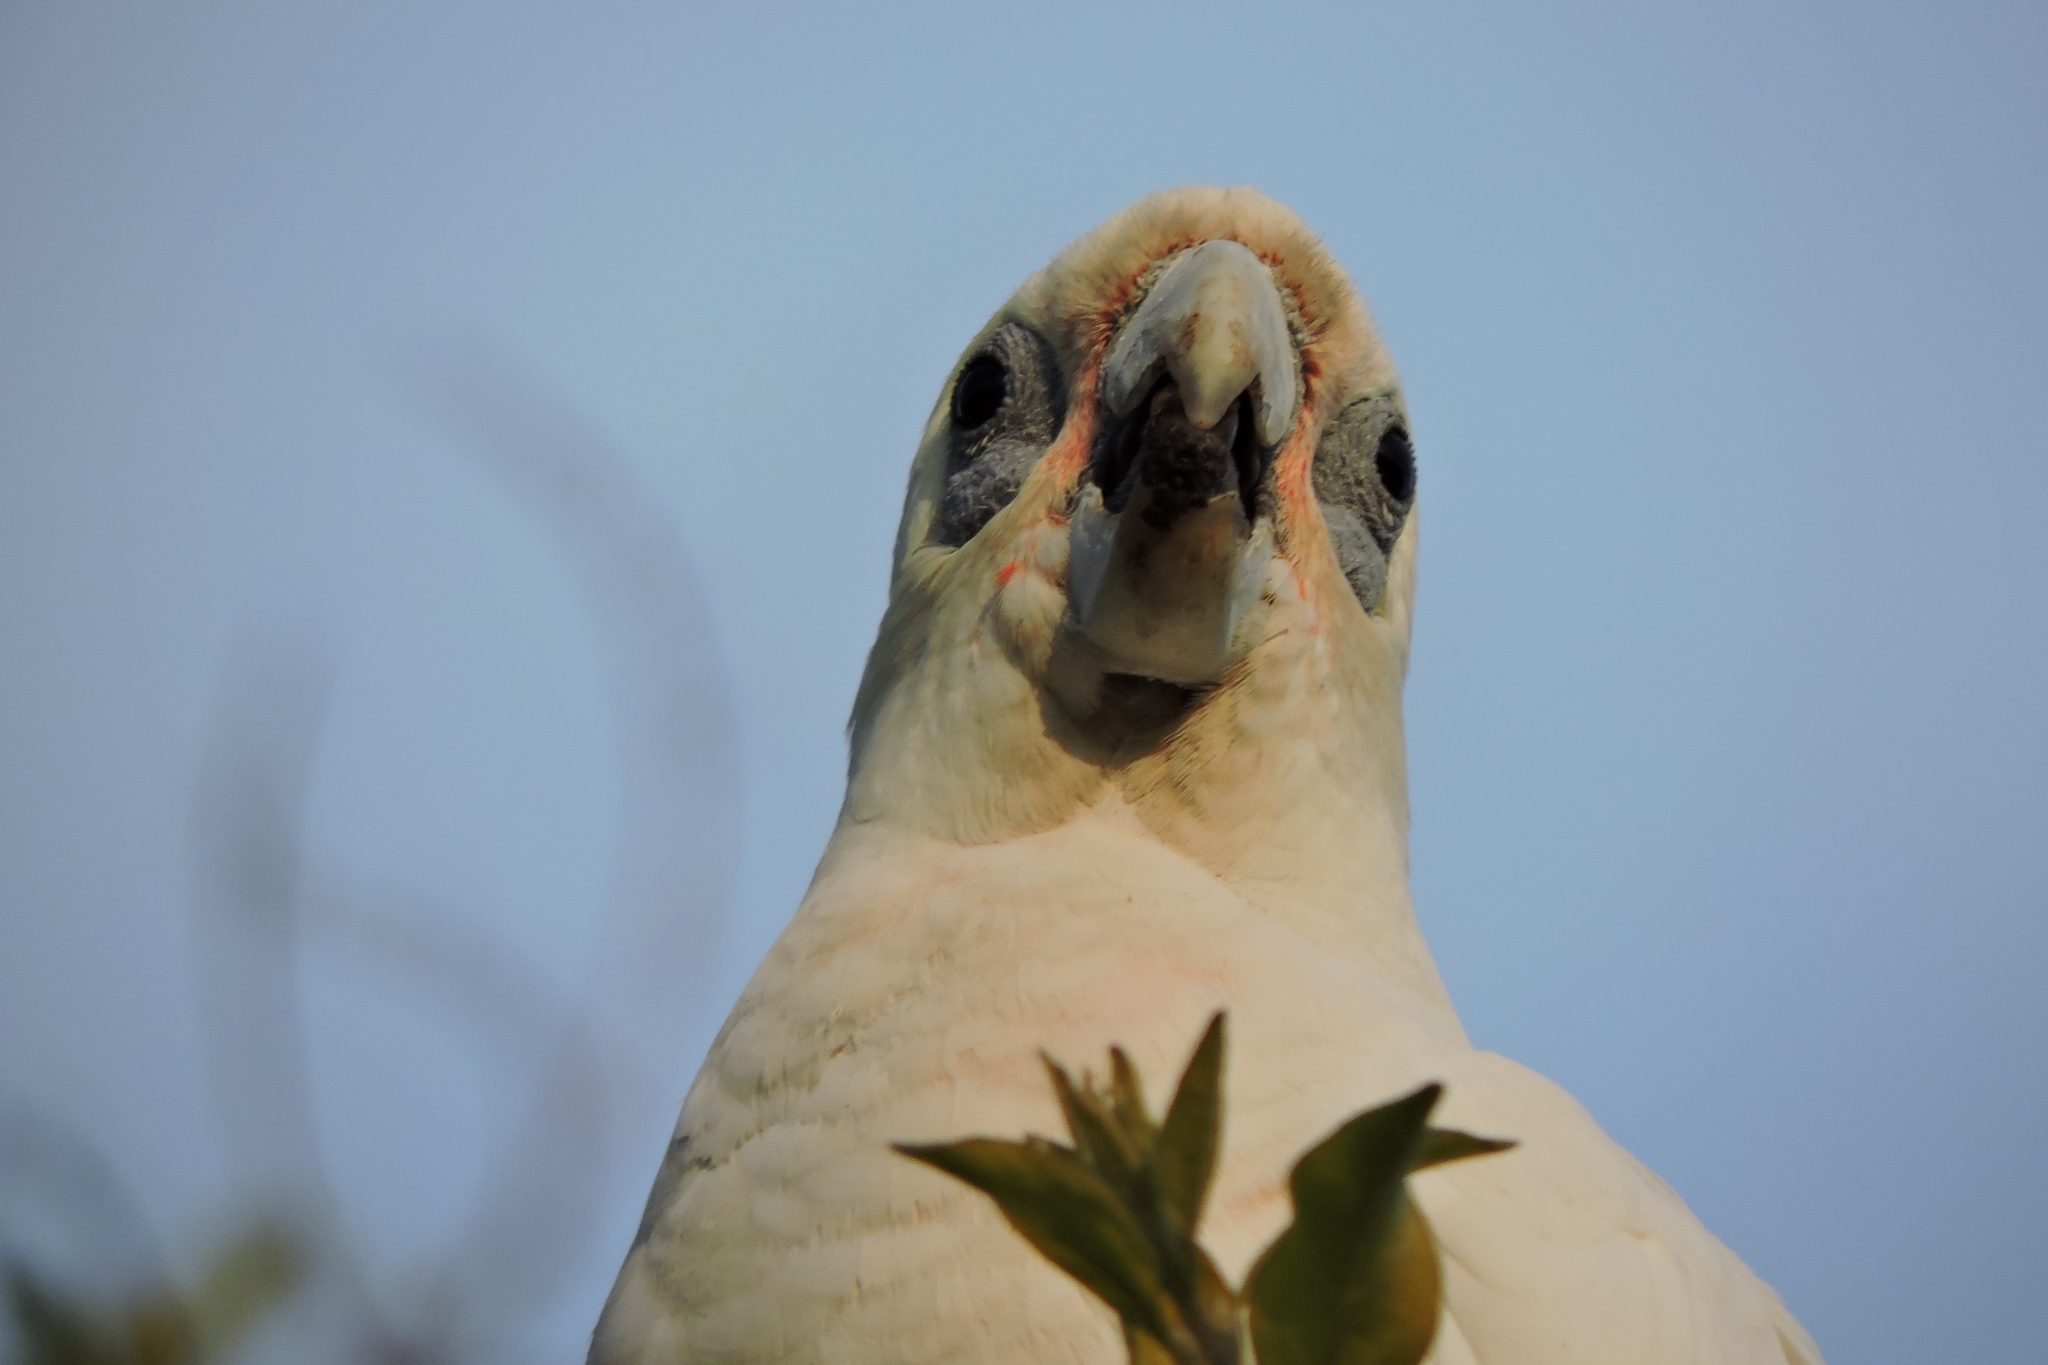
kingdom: Animalia
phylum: Chordata
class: Aves
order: Psittaciformes
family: Psittacidae
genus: Cacatua
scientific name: Cacatua sanguinea
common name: Little corella
